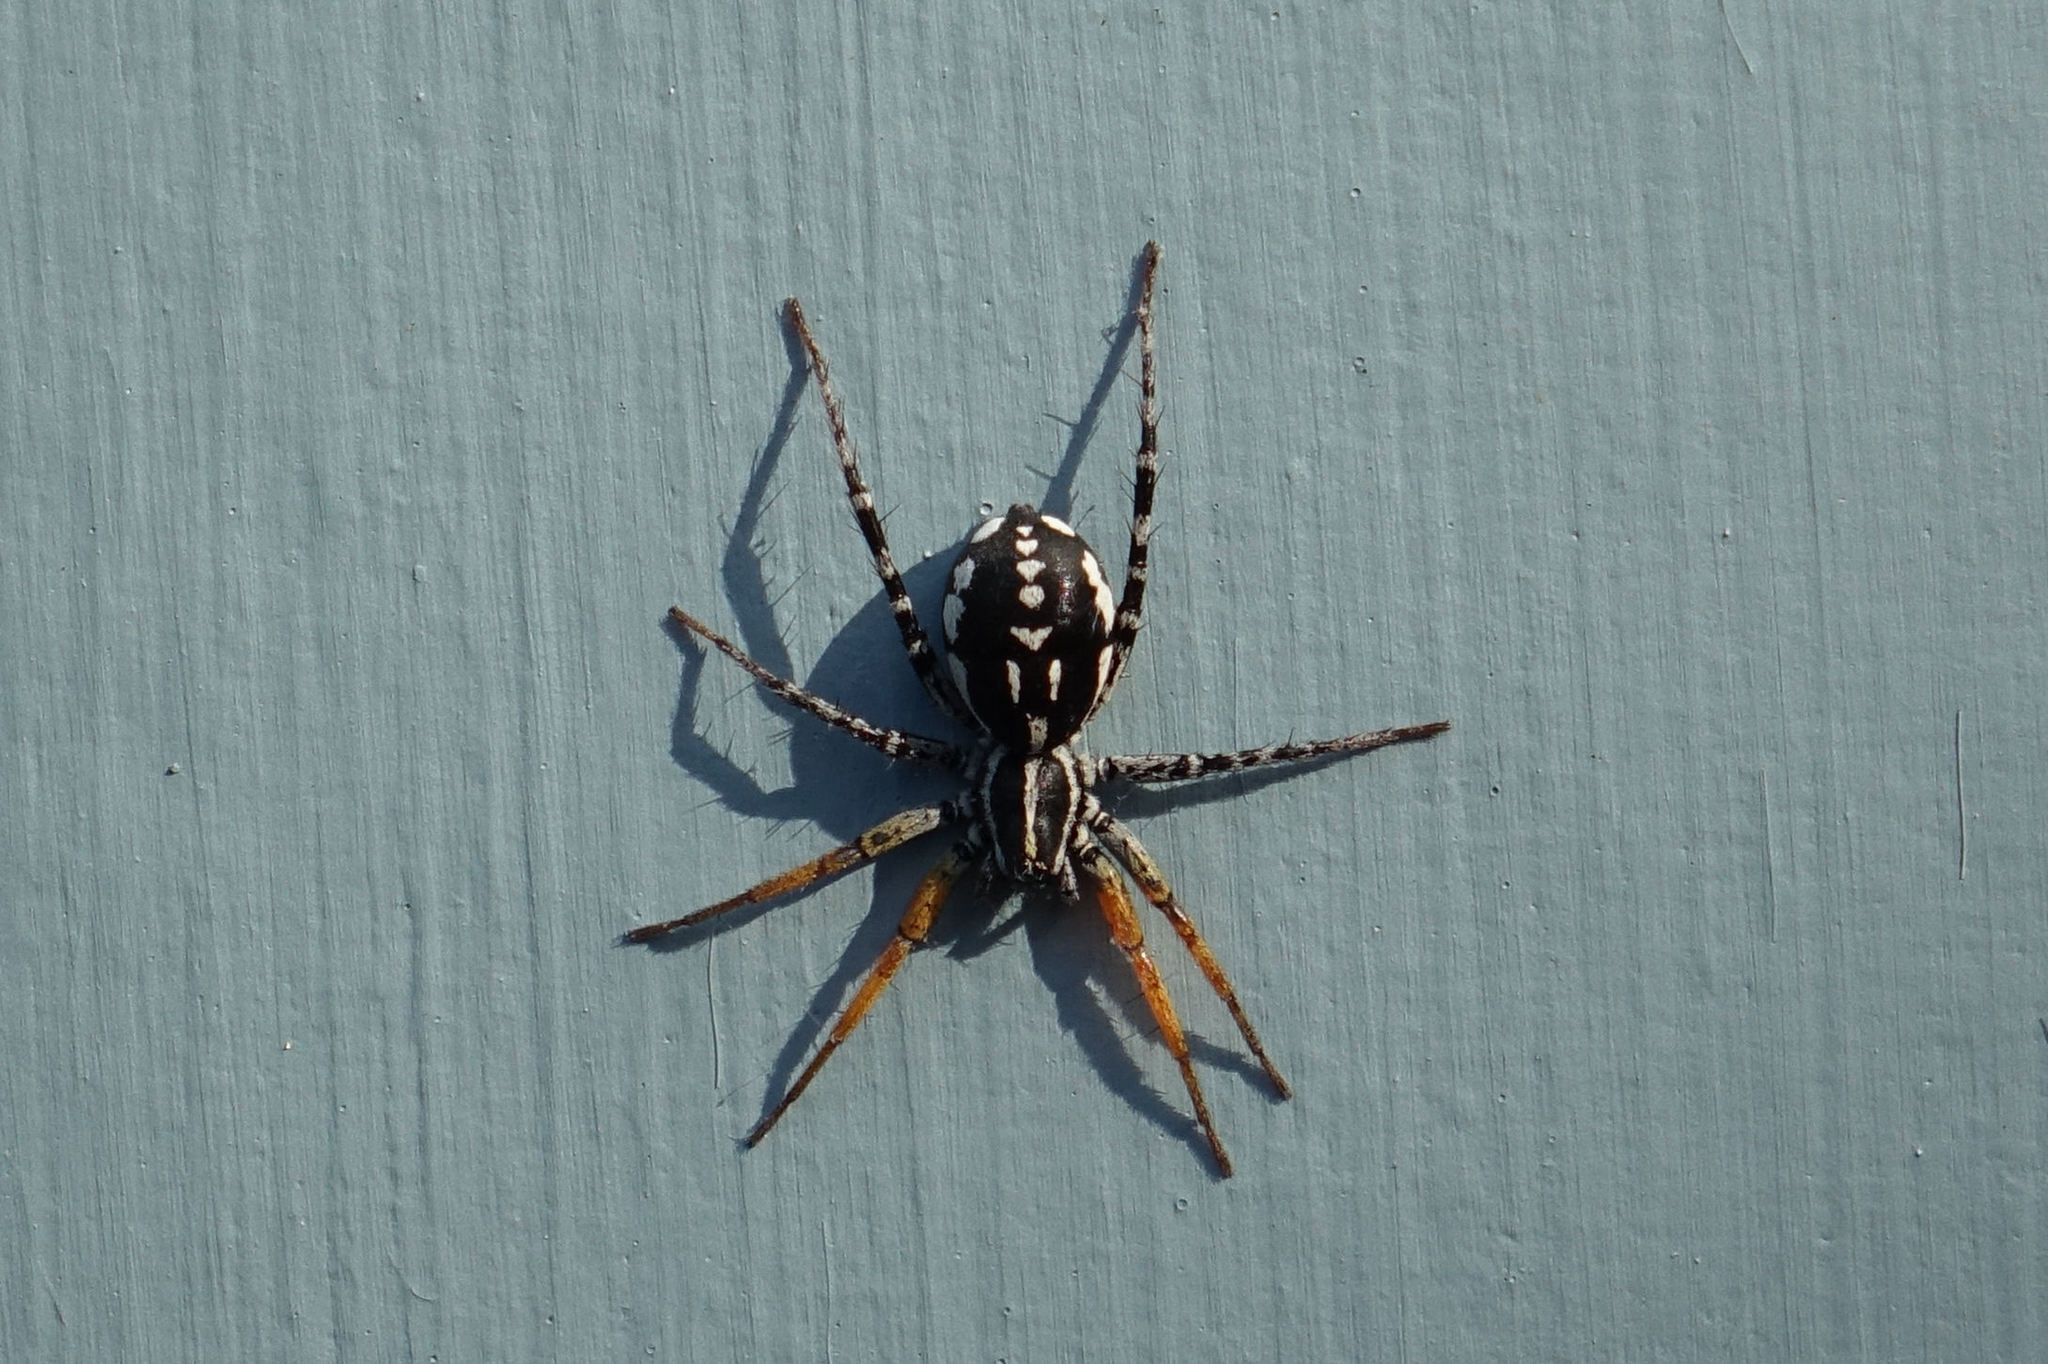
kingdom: Animalia
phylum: Arthropoda
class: Arachnida
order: Araneae
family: Corinnidae
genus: Nyssus
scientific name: Nyssus coloripes
